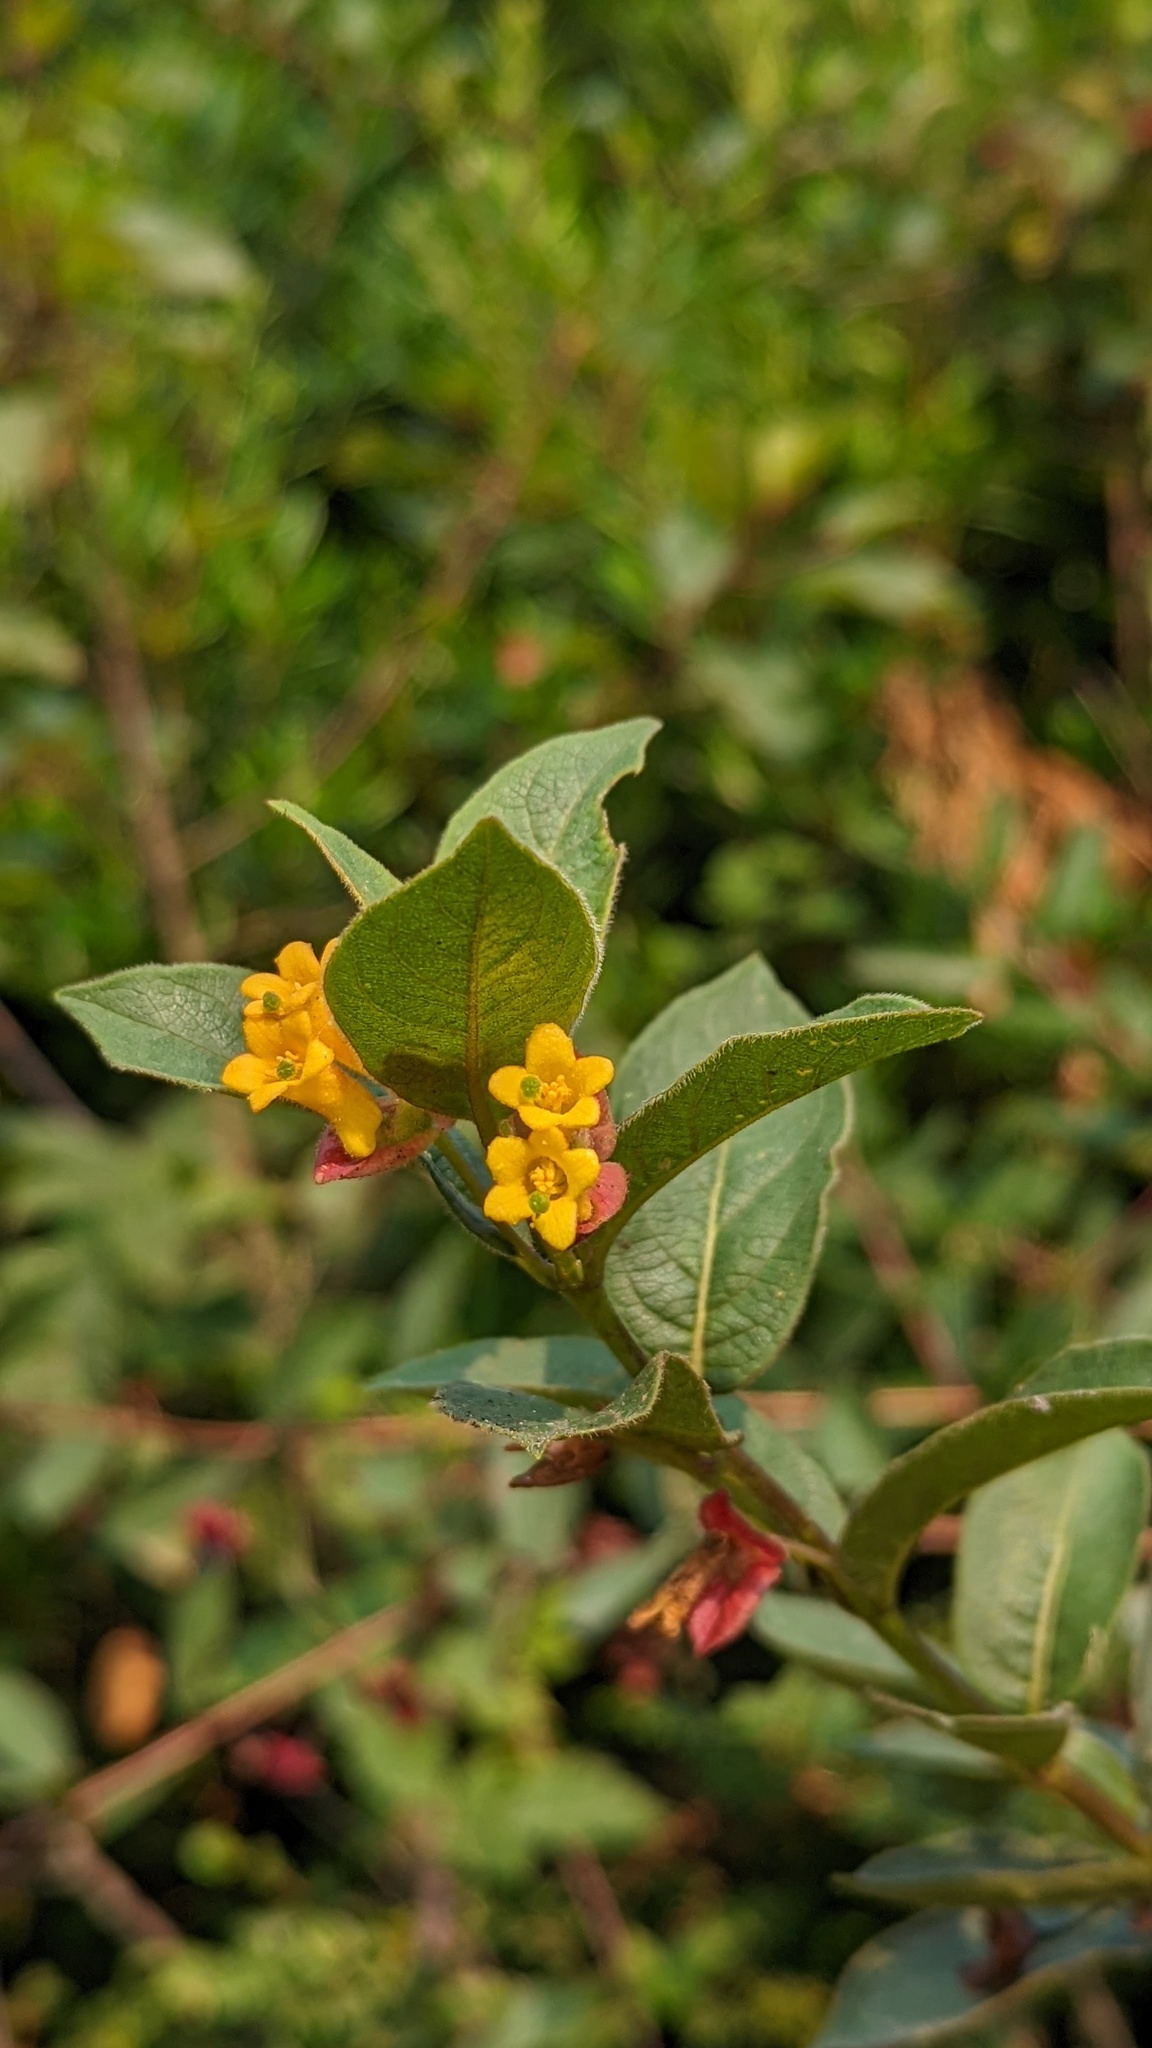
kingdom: Plantae
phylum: Tracheophyta
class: Magnoliopsida
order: Dipsacales
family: Caprifoliaceae
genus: Lonicera
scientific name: Lonicera involucrata
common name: Californian honeysuckle
